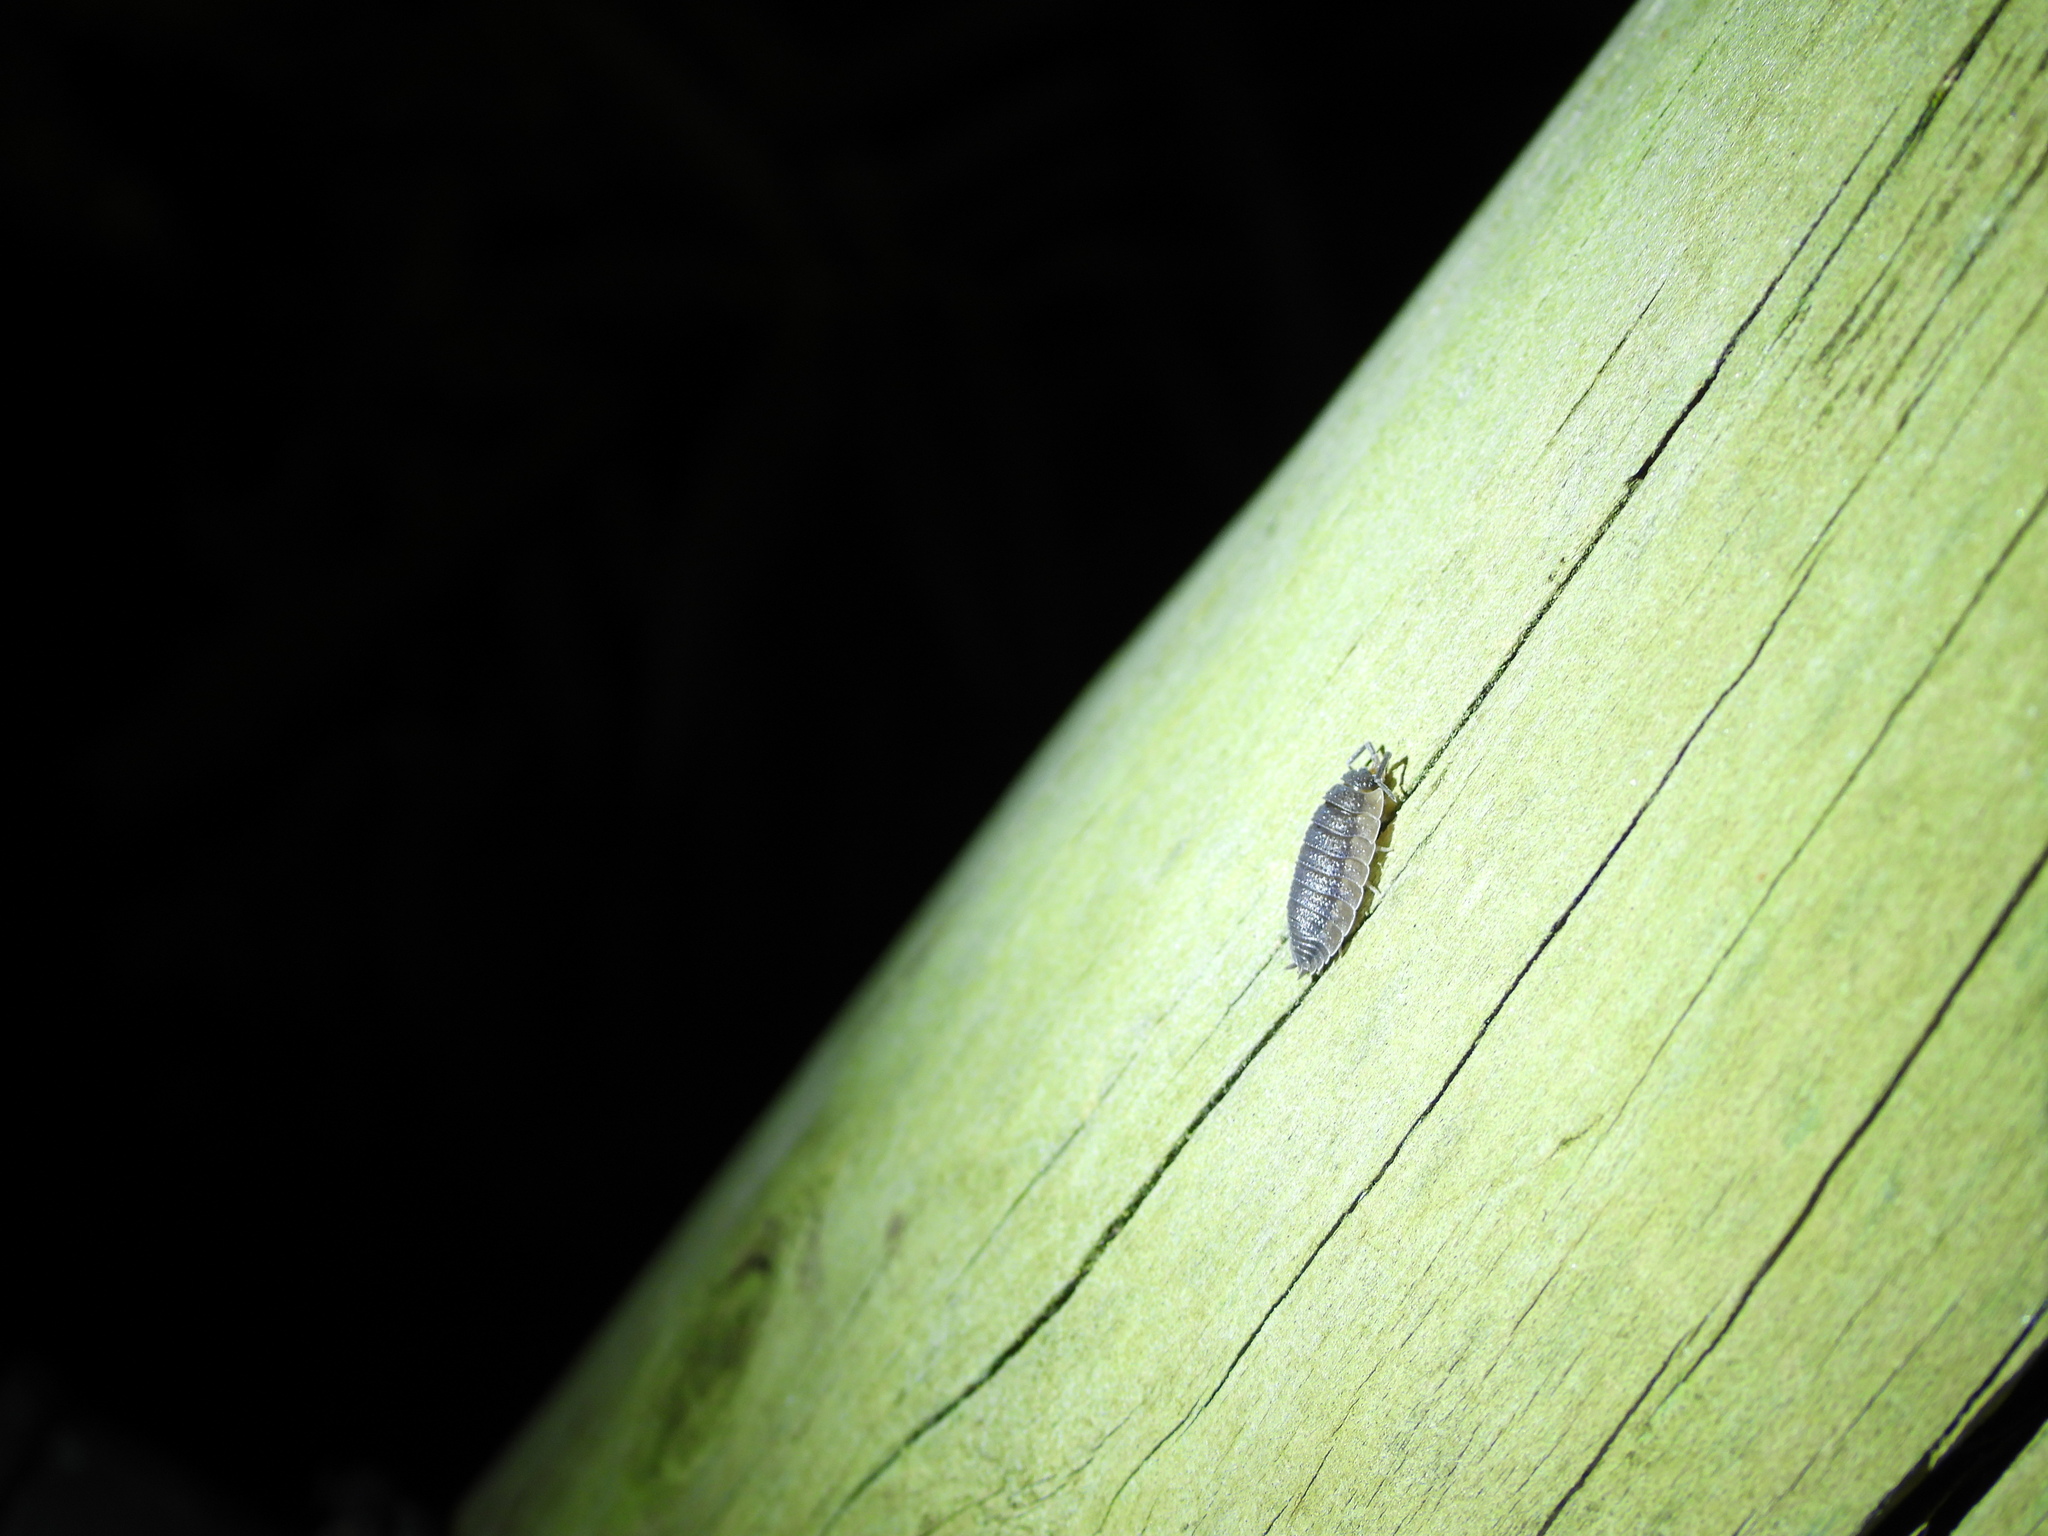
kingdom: Animalia
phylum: Arthropoda
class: Malacostraca
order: Isopoda
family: Porcellionidae
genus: Porcellio
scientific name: Porcellio scaber
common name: Common rough woodlouse
